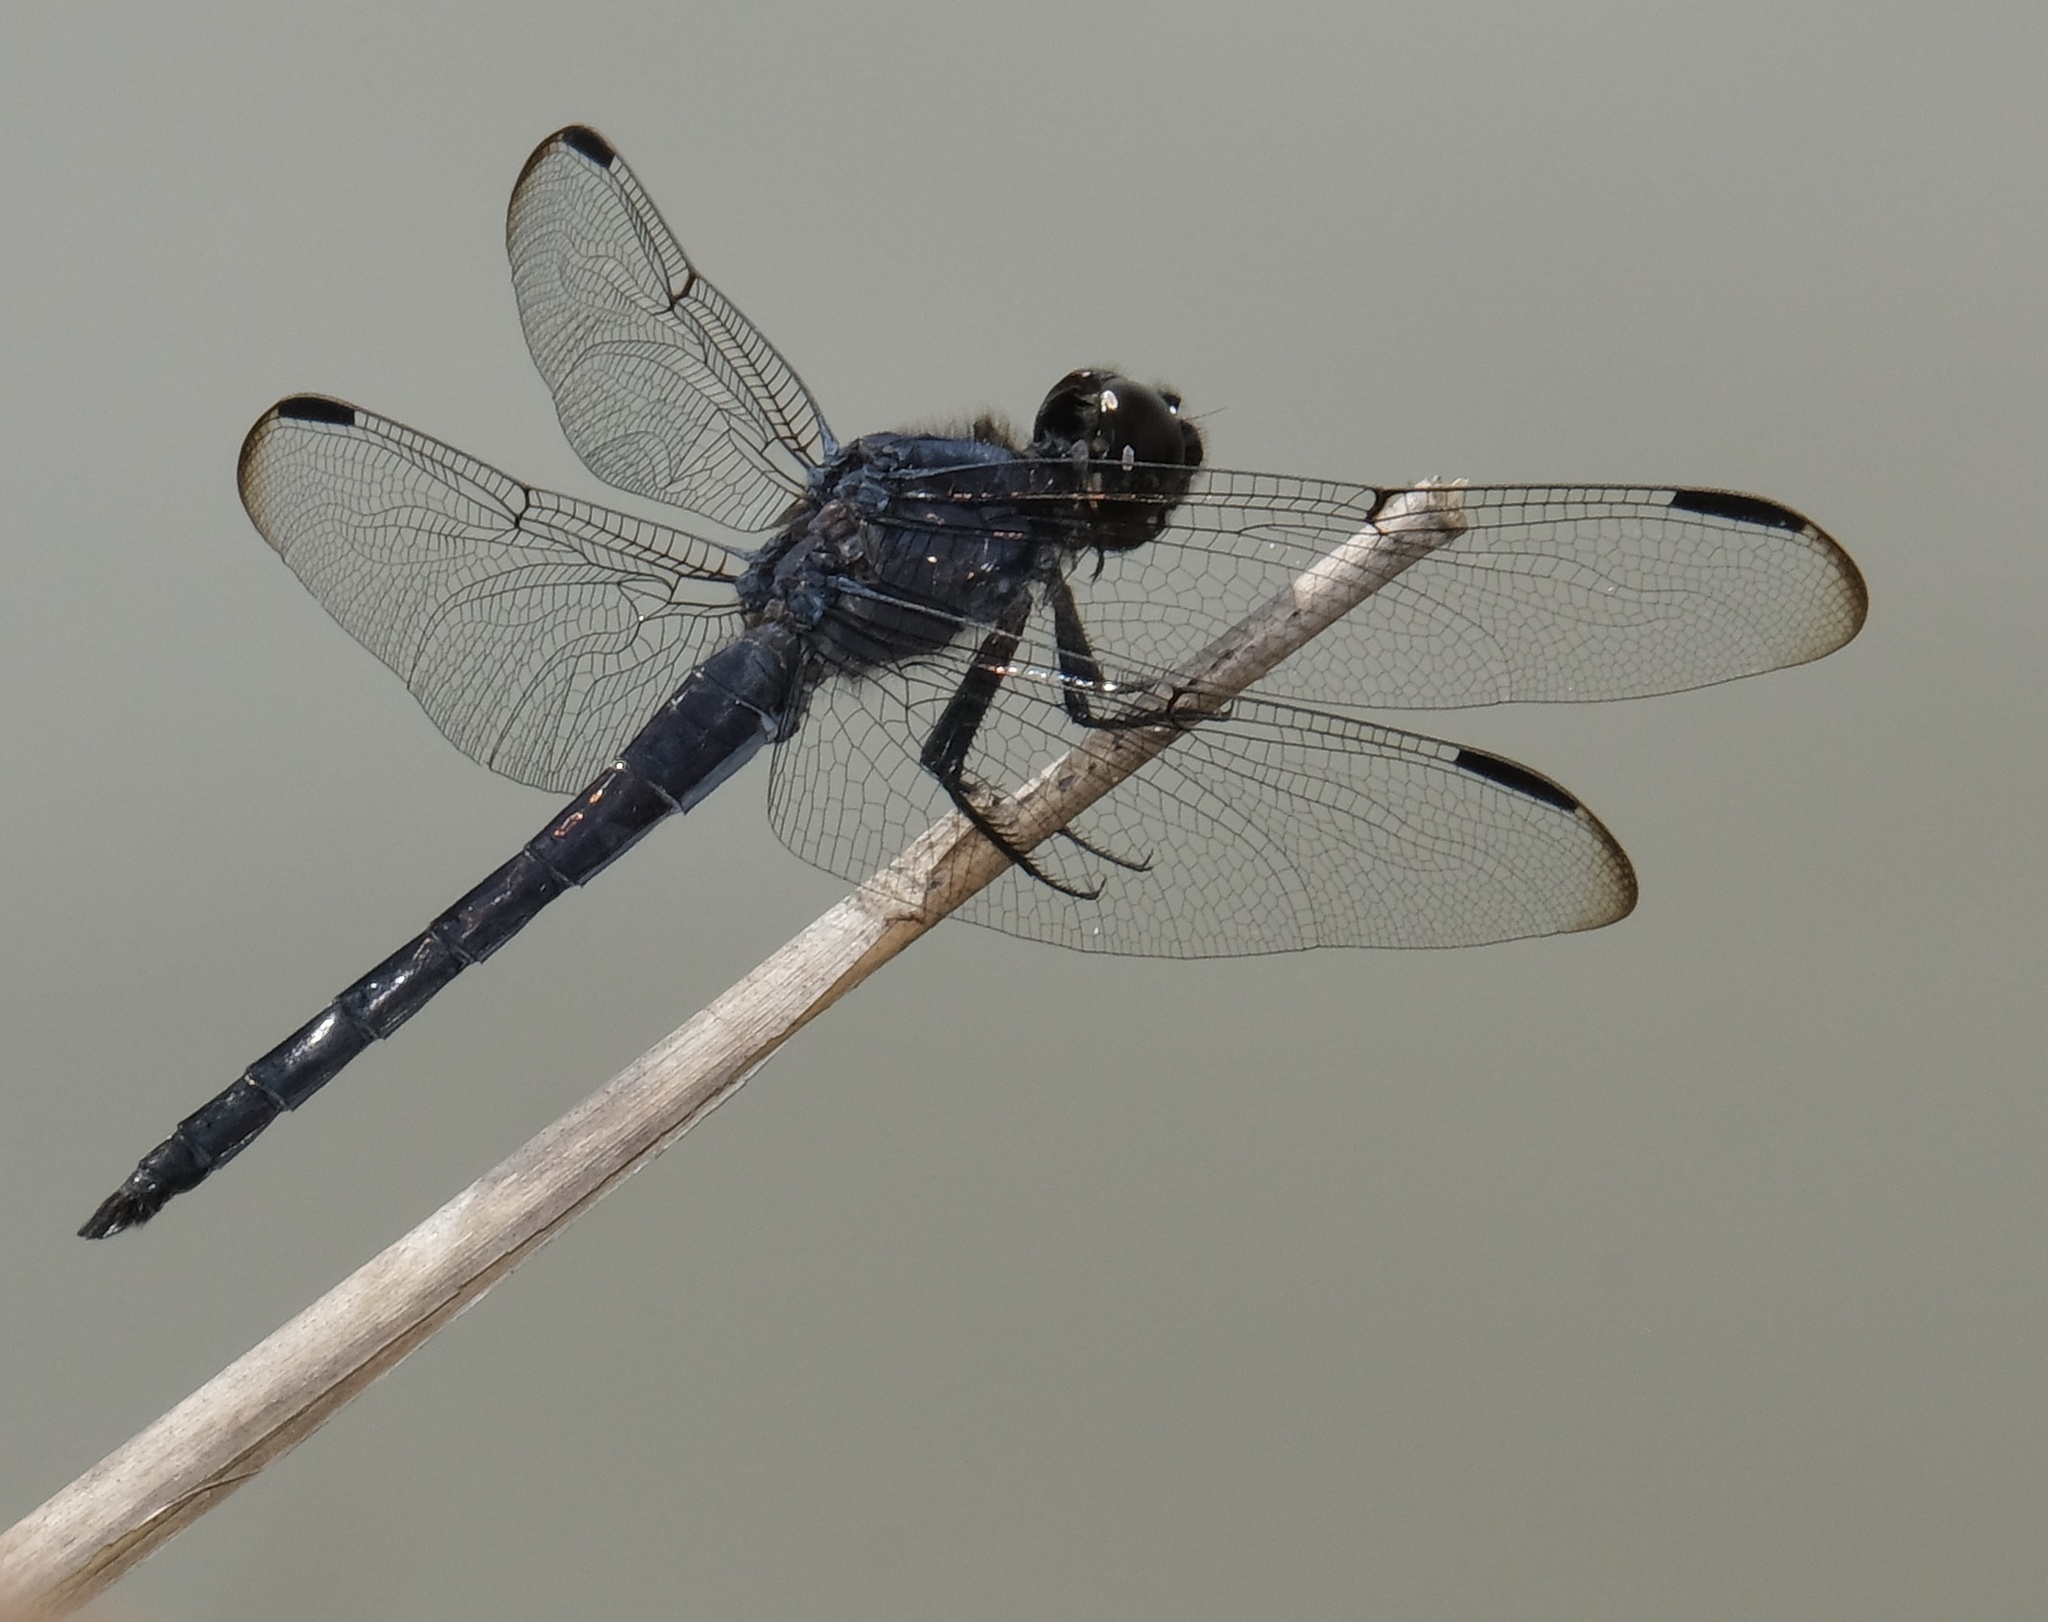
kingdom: Animalia
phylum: Arthropoda
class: Insecta
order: Odonata
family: Libellulidae
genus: Libellula
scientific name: Libellula incesta
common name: Slaty skimmer
